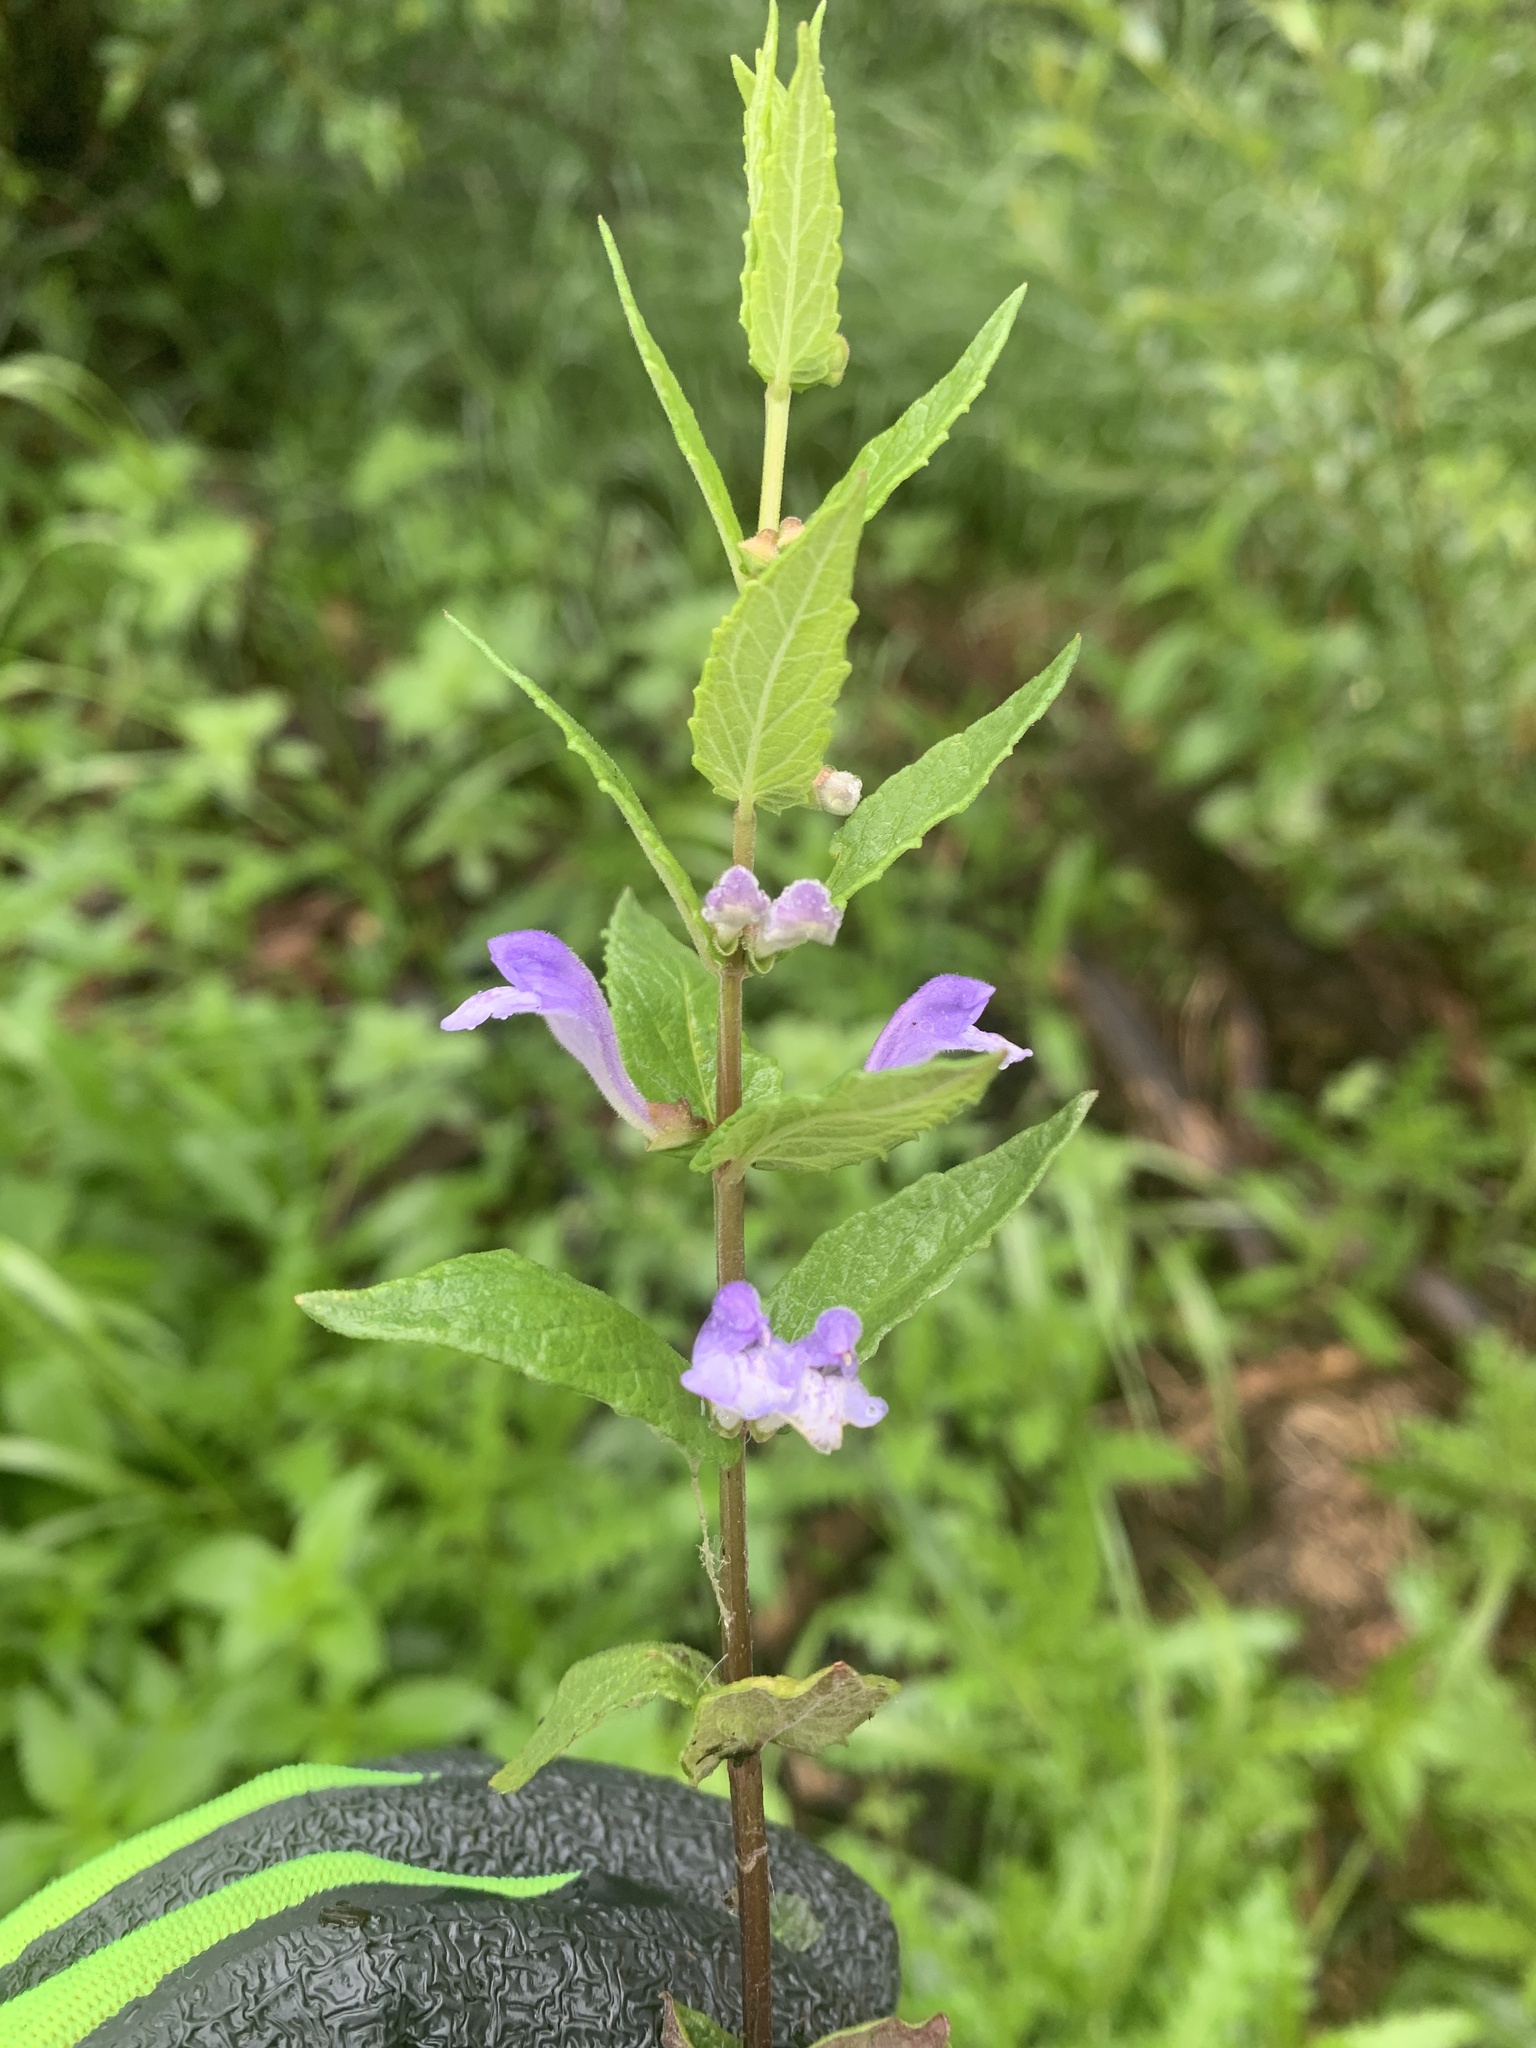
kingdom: Plantae
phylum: Tracheophyta
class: Magnoliopsida
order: Lamiales
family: Lamiaceae
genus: Scutellaria
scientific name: Scutellaria galericulata
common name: Skullcap
